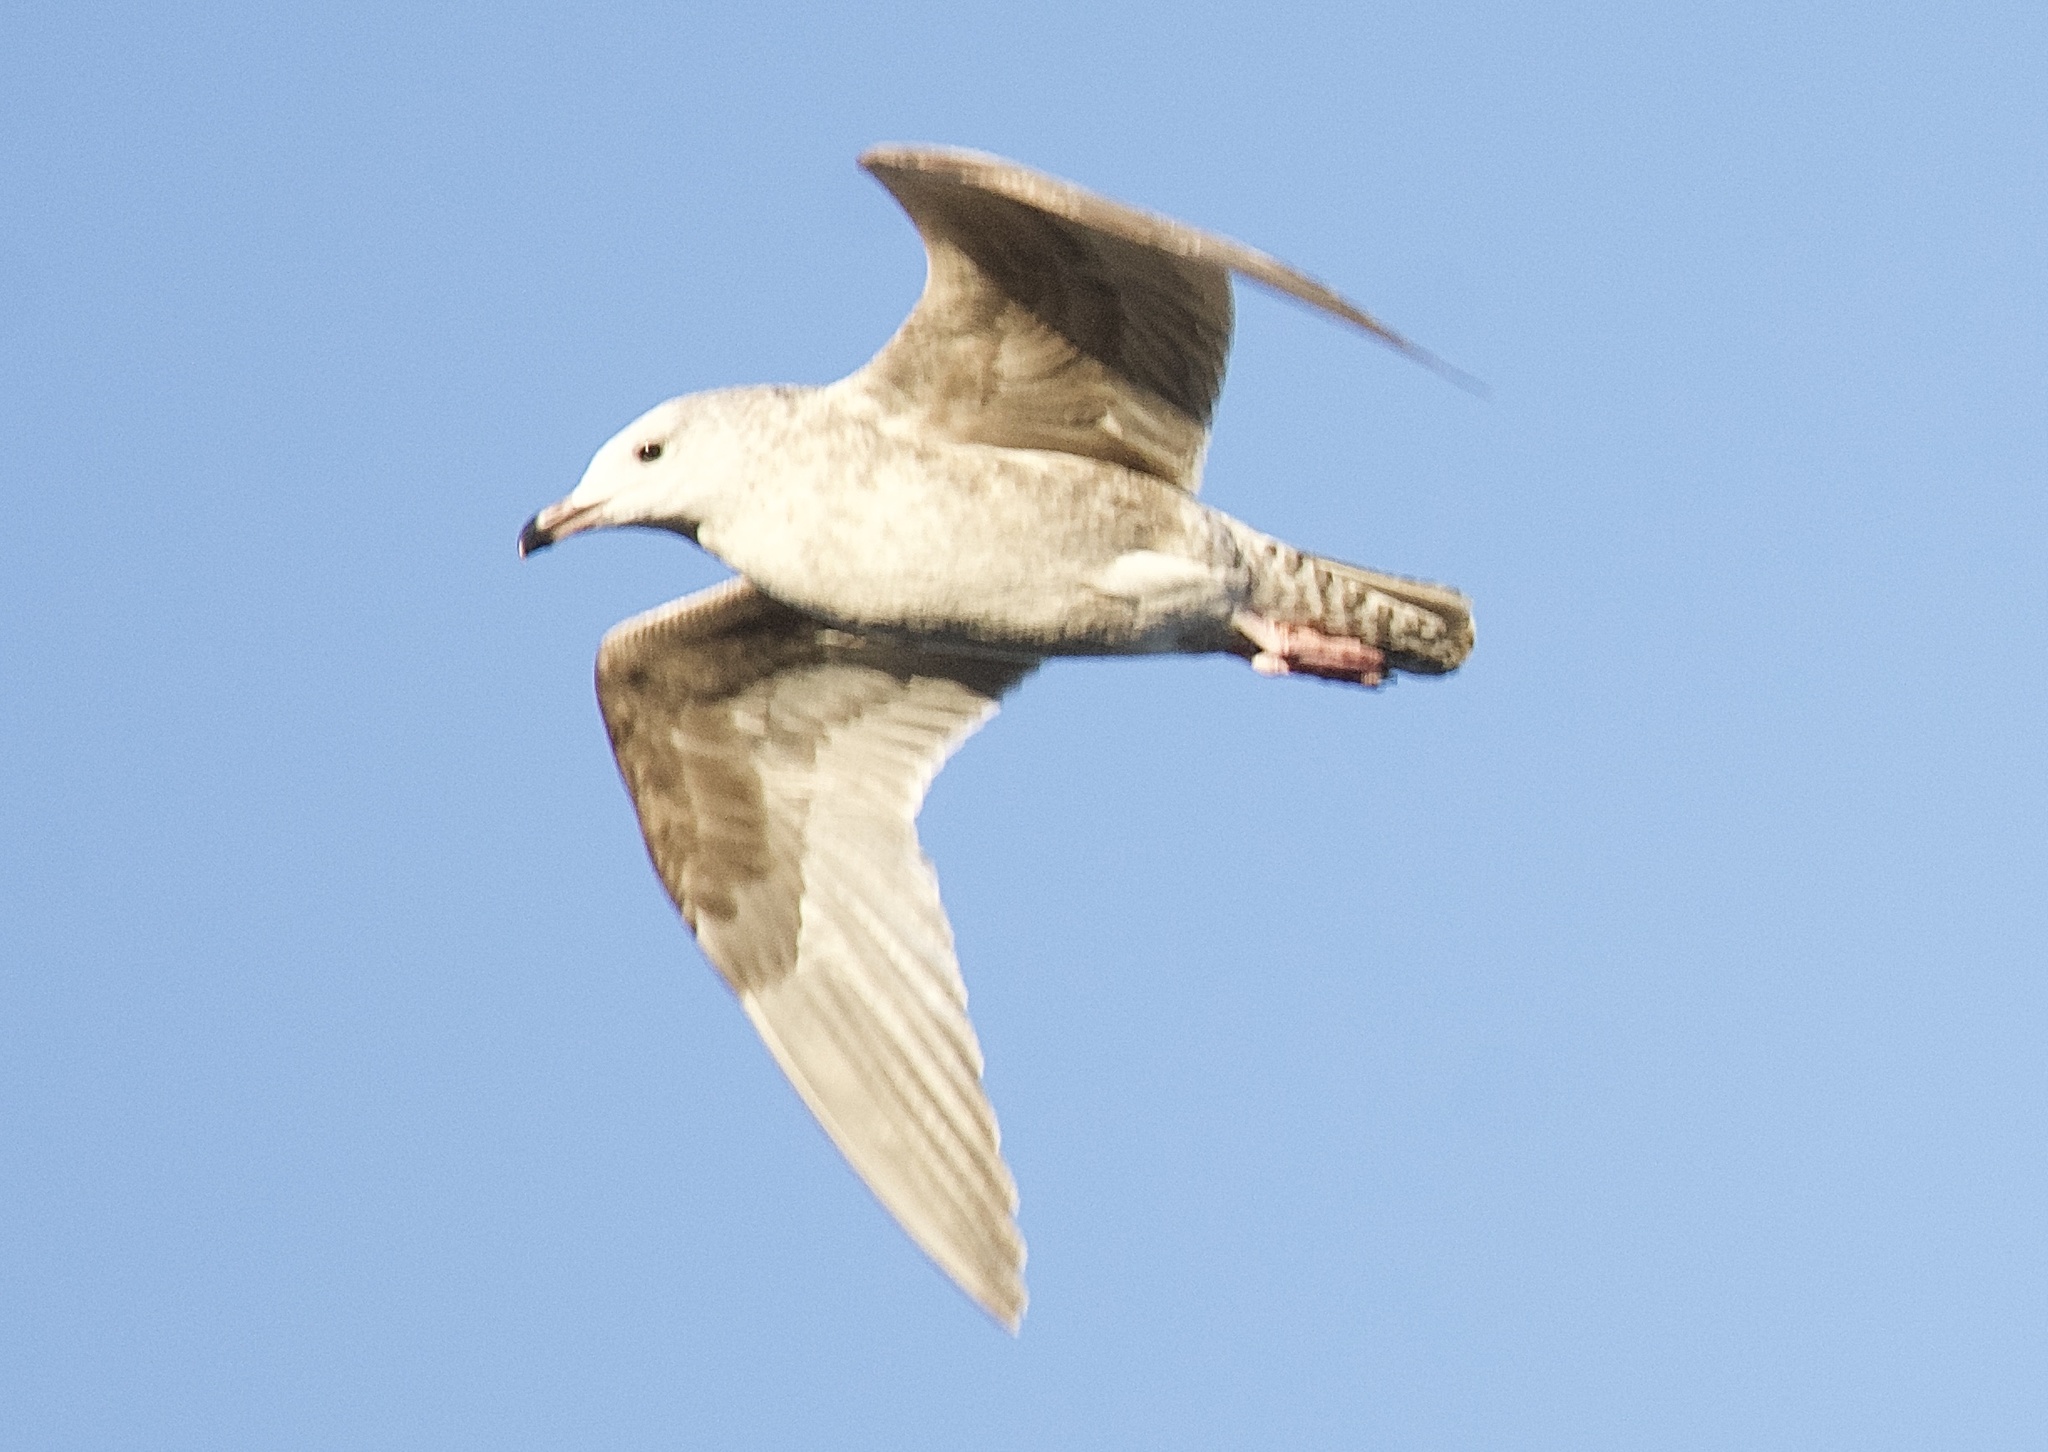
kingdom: Animalia
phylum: Chordata
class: Aves
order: Charadriiformes
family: Laridae
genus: Larus
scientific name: Larus glaucoides
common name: Iceland gull
